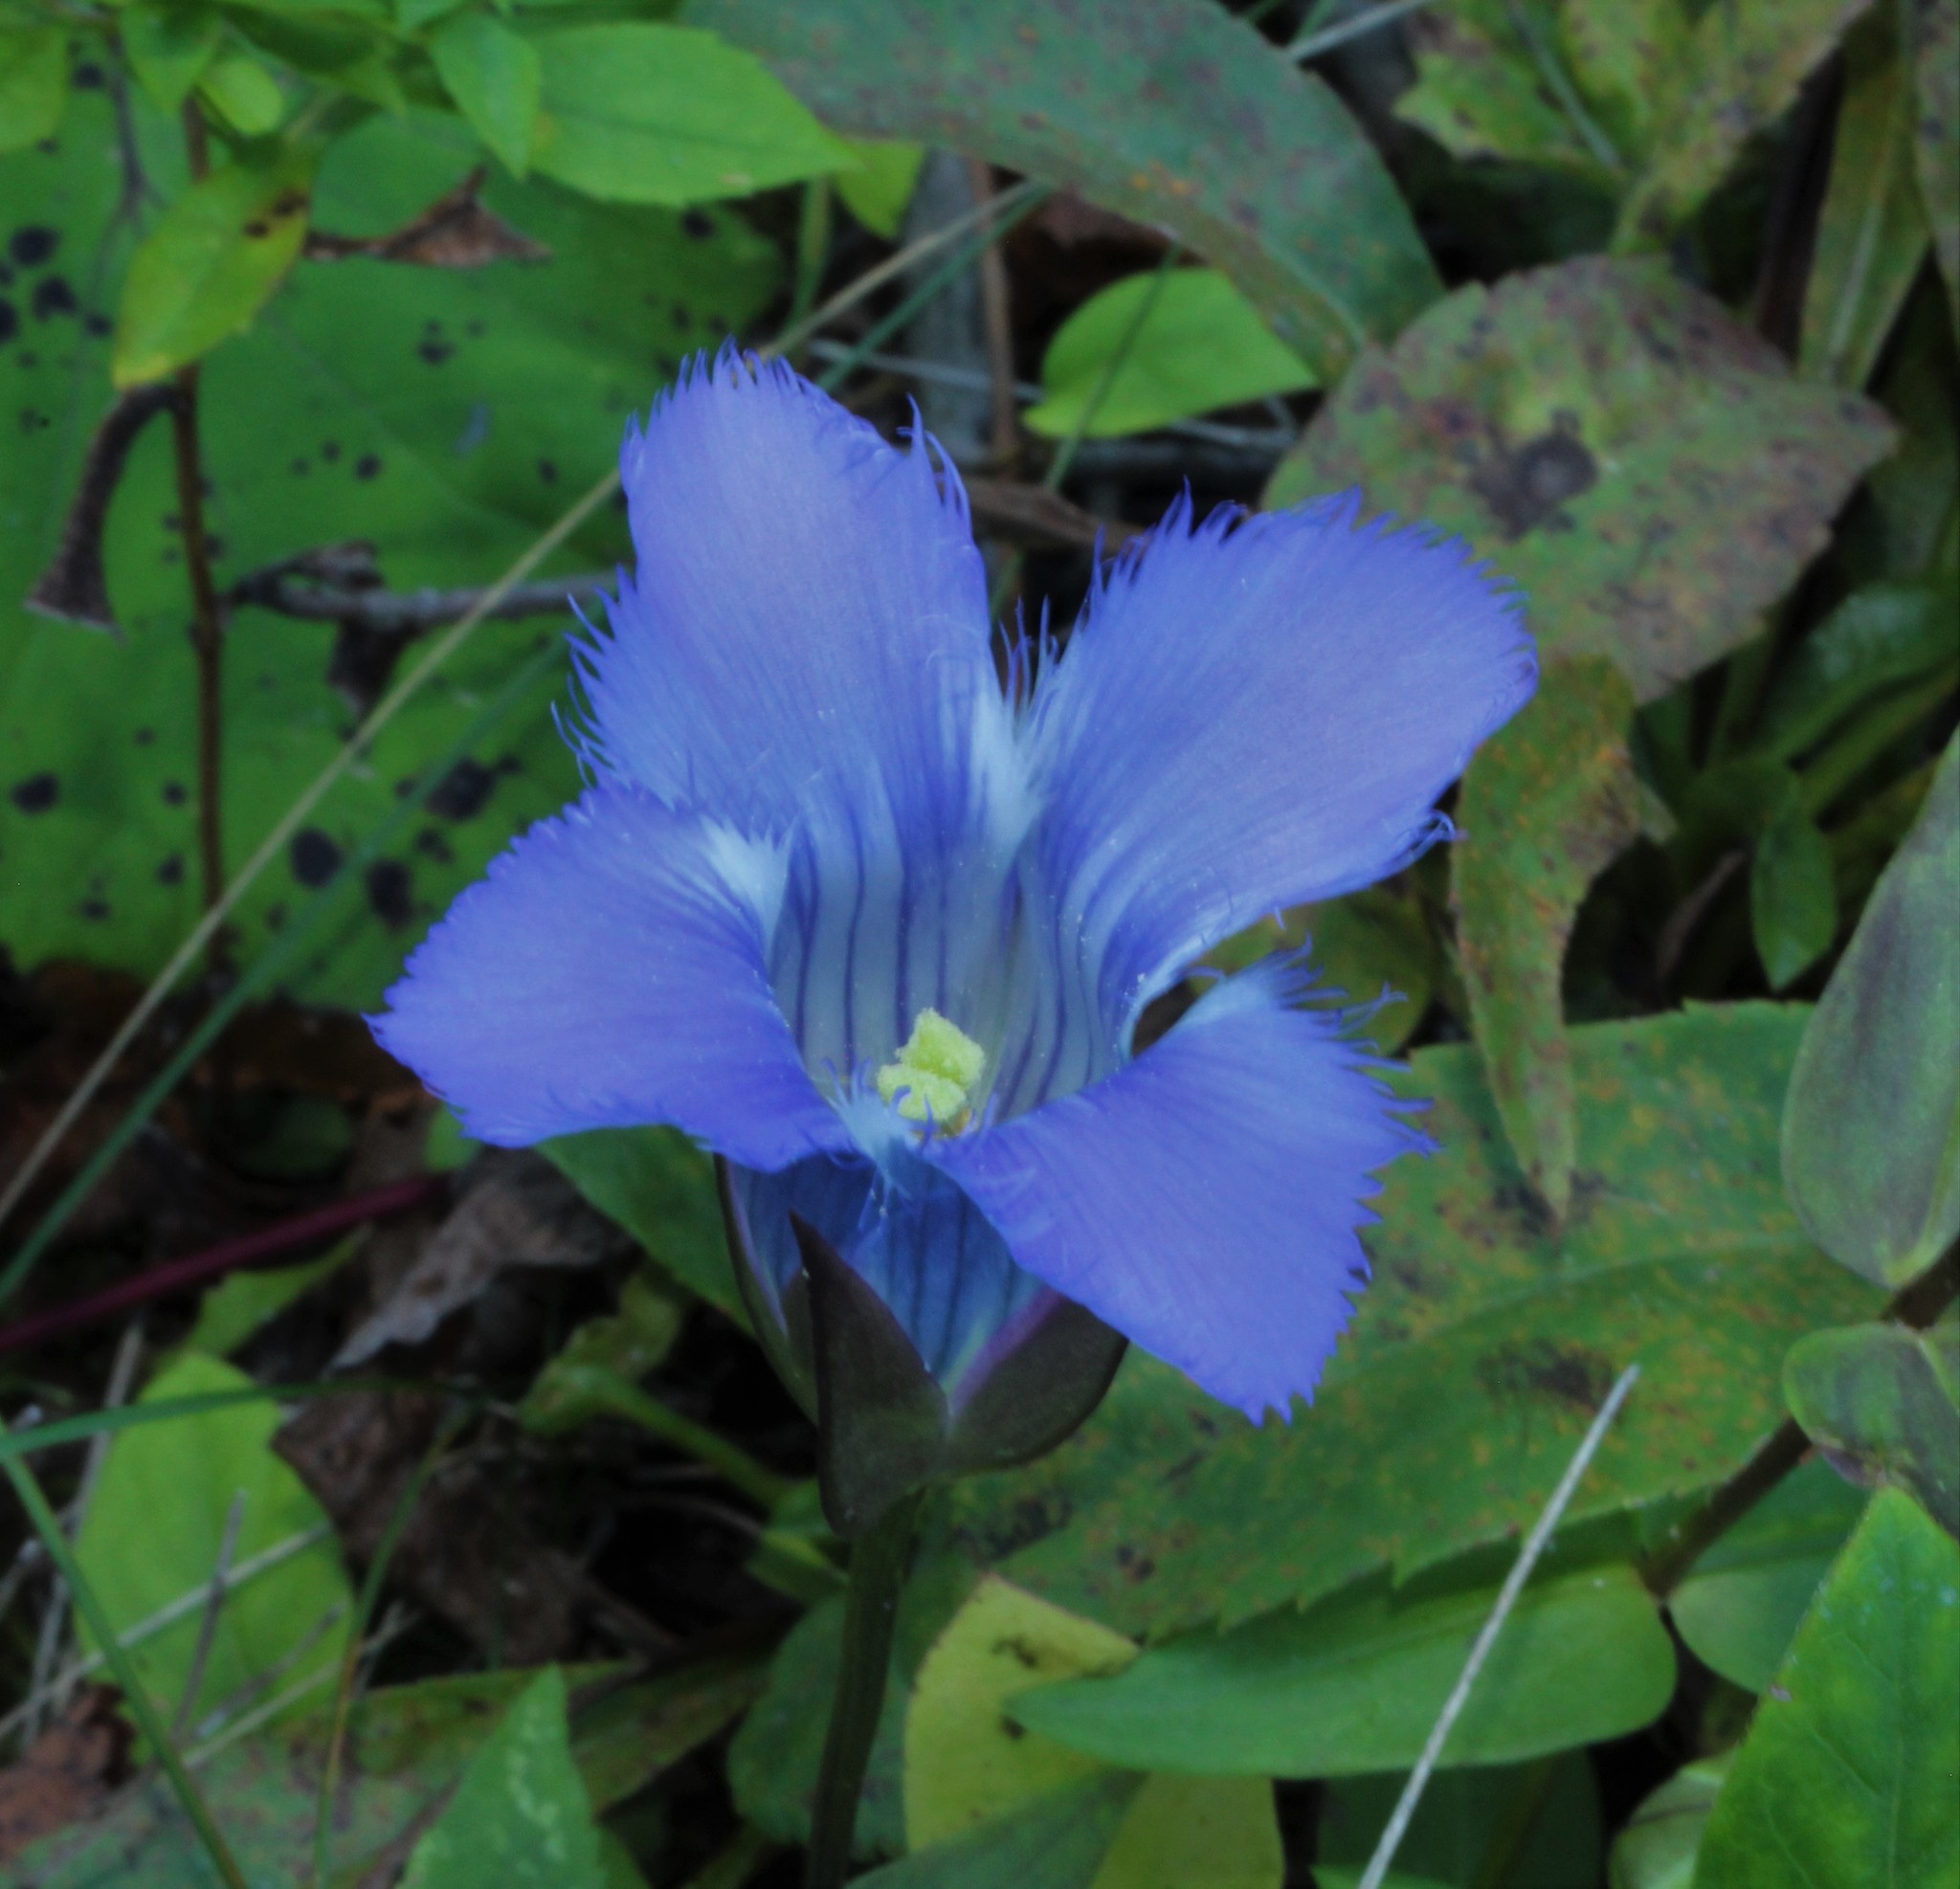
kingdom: Plantae
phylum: Tracheophyta
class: Magnoliopsida
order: Gentianales
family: Gentianaceae
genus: Gentianopsis
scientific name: Gentianopsis crinita
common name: Fringed-gentian
